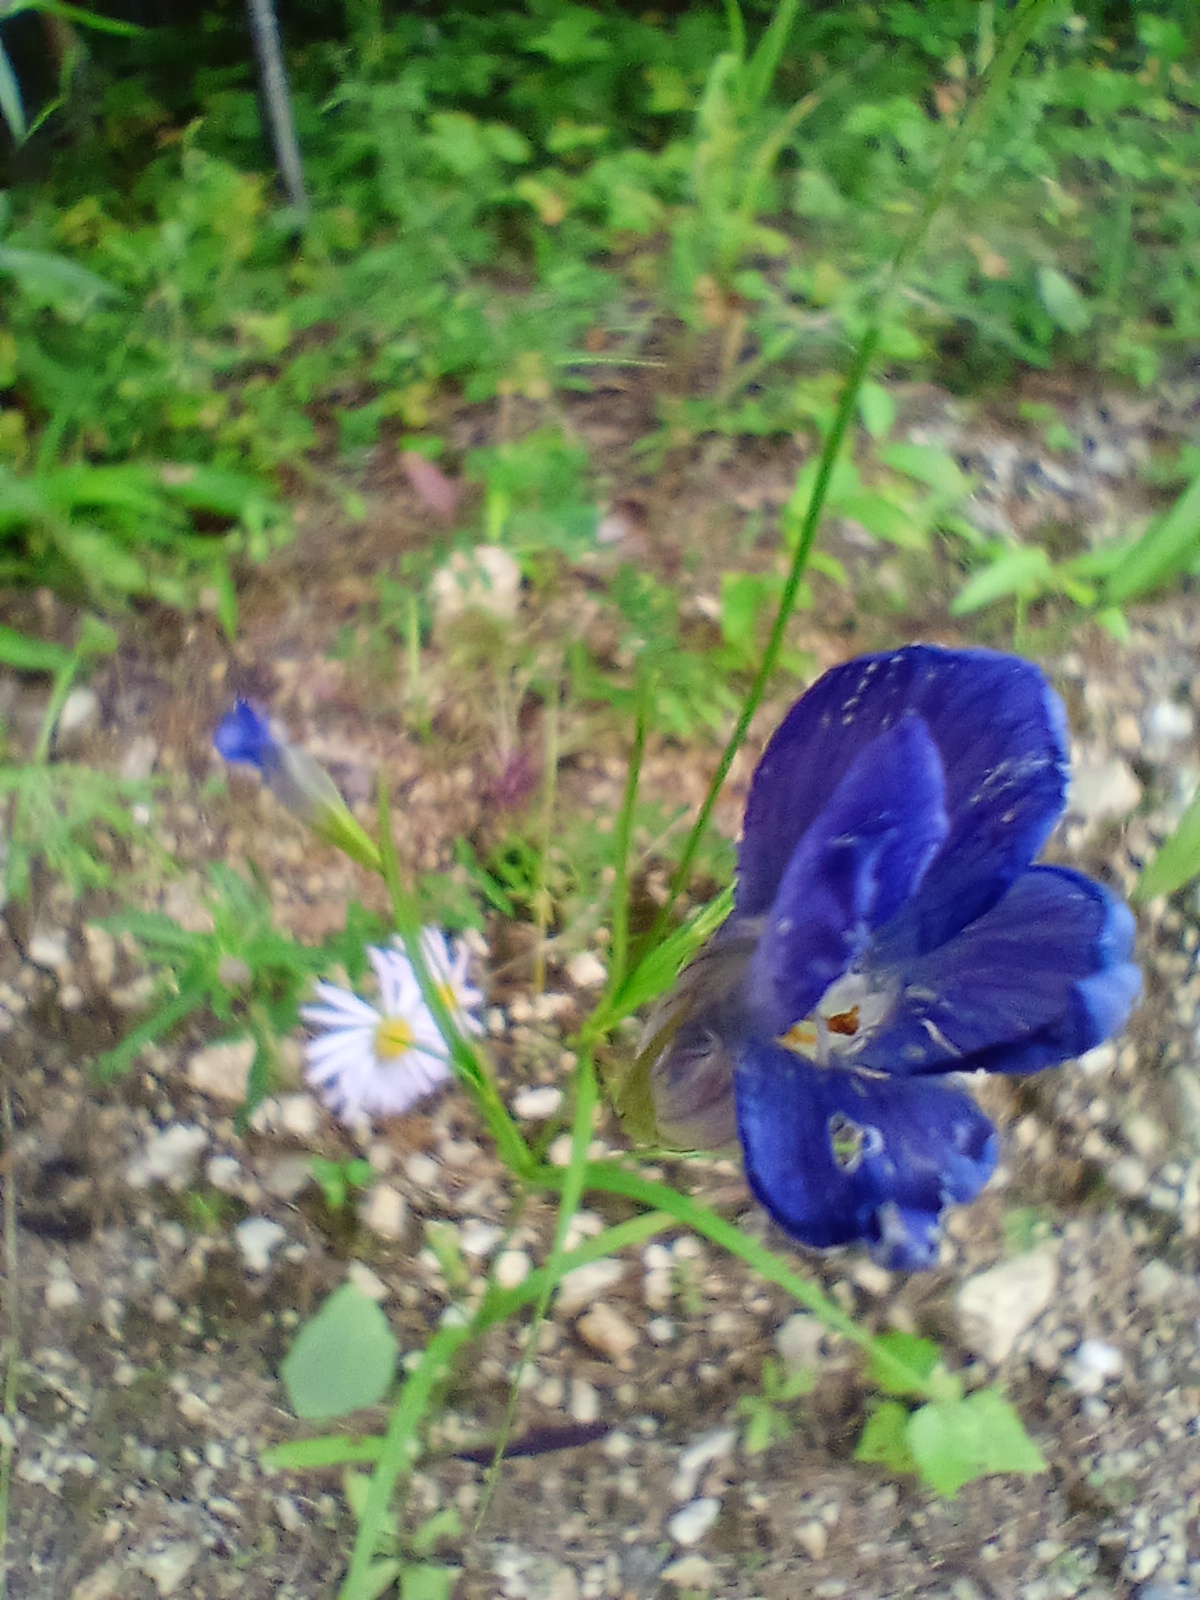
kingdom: Plantae
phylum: Tracheophyta
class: Magnoliopsida
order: Gentianales
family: Gentianaceae
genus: Gentianopsis
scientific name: Gentianopsis barbata
